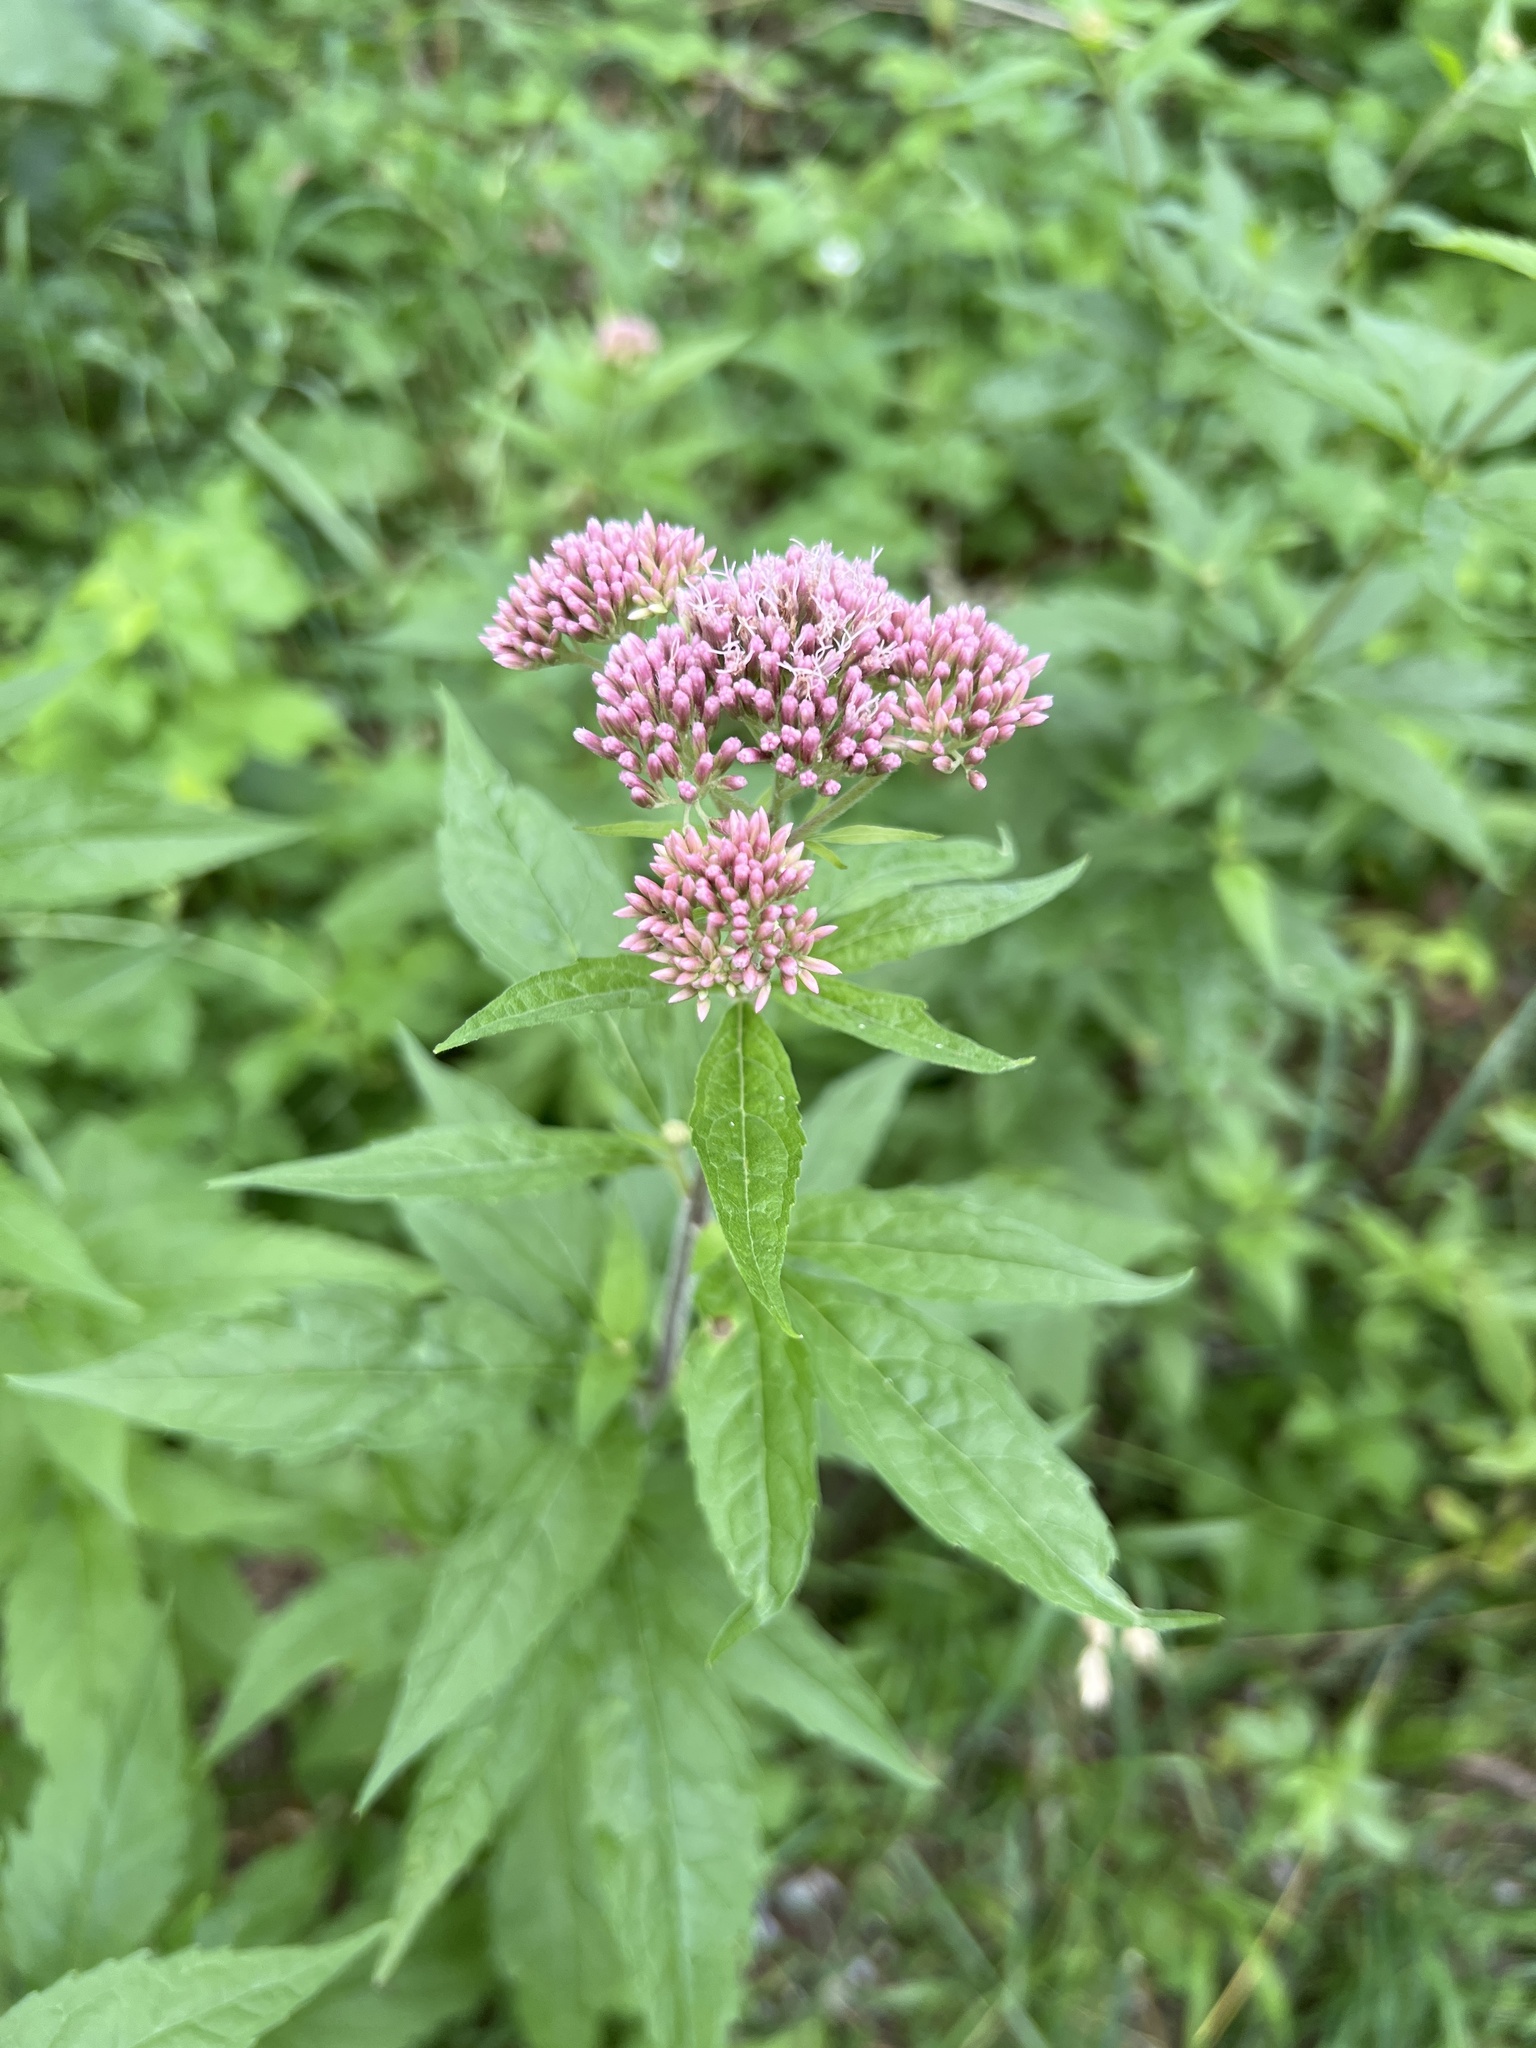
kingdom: Plantae
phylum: Tracheophyta
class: Magnoliopsida
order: Asterales
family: Asteraceae
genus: Eupatorium
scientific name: Eupatorium cannabinum
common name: Hemp-agrimony
